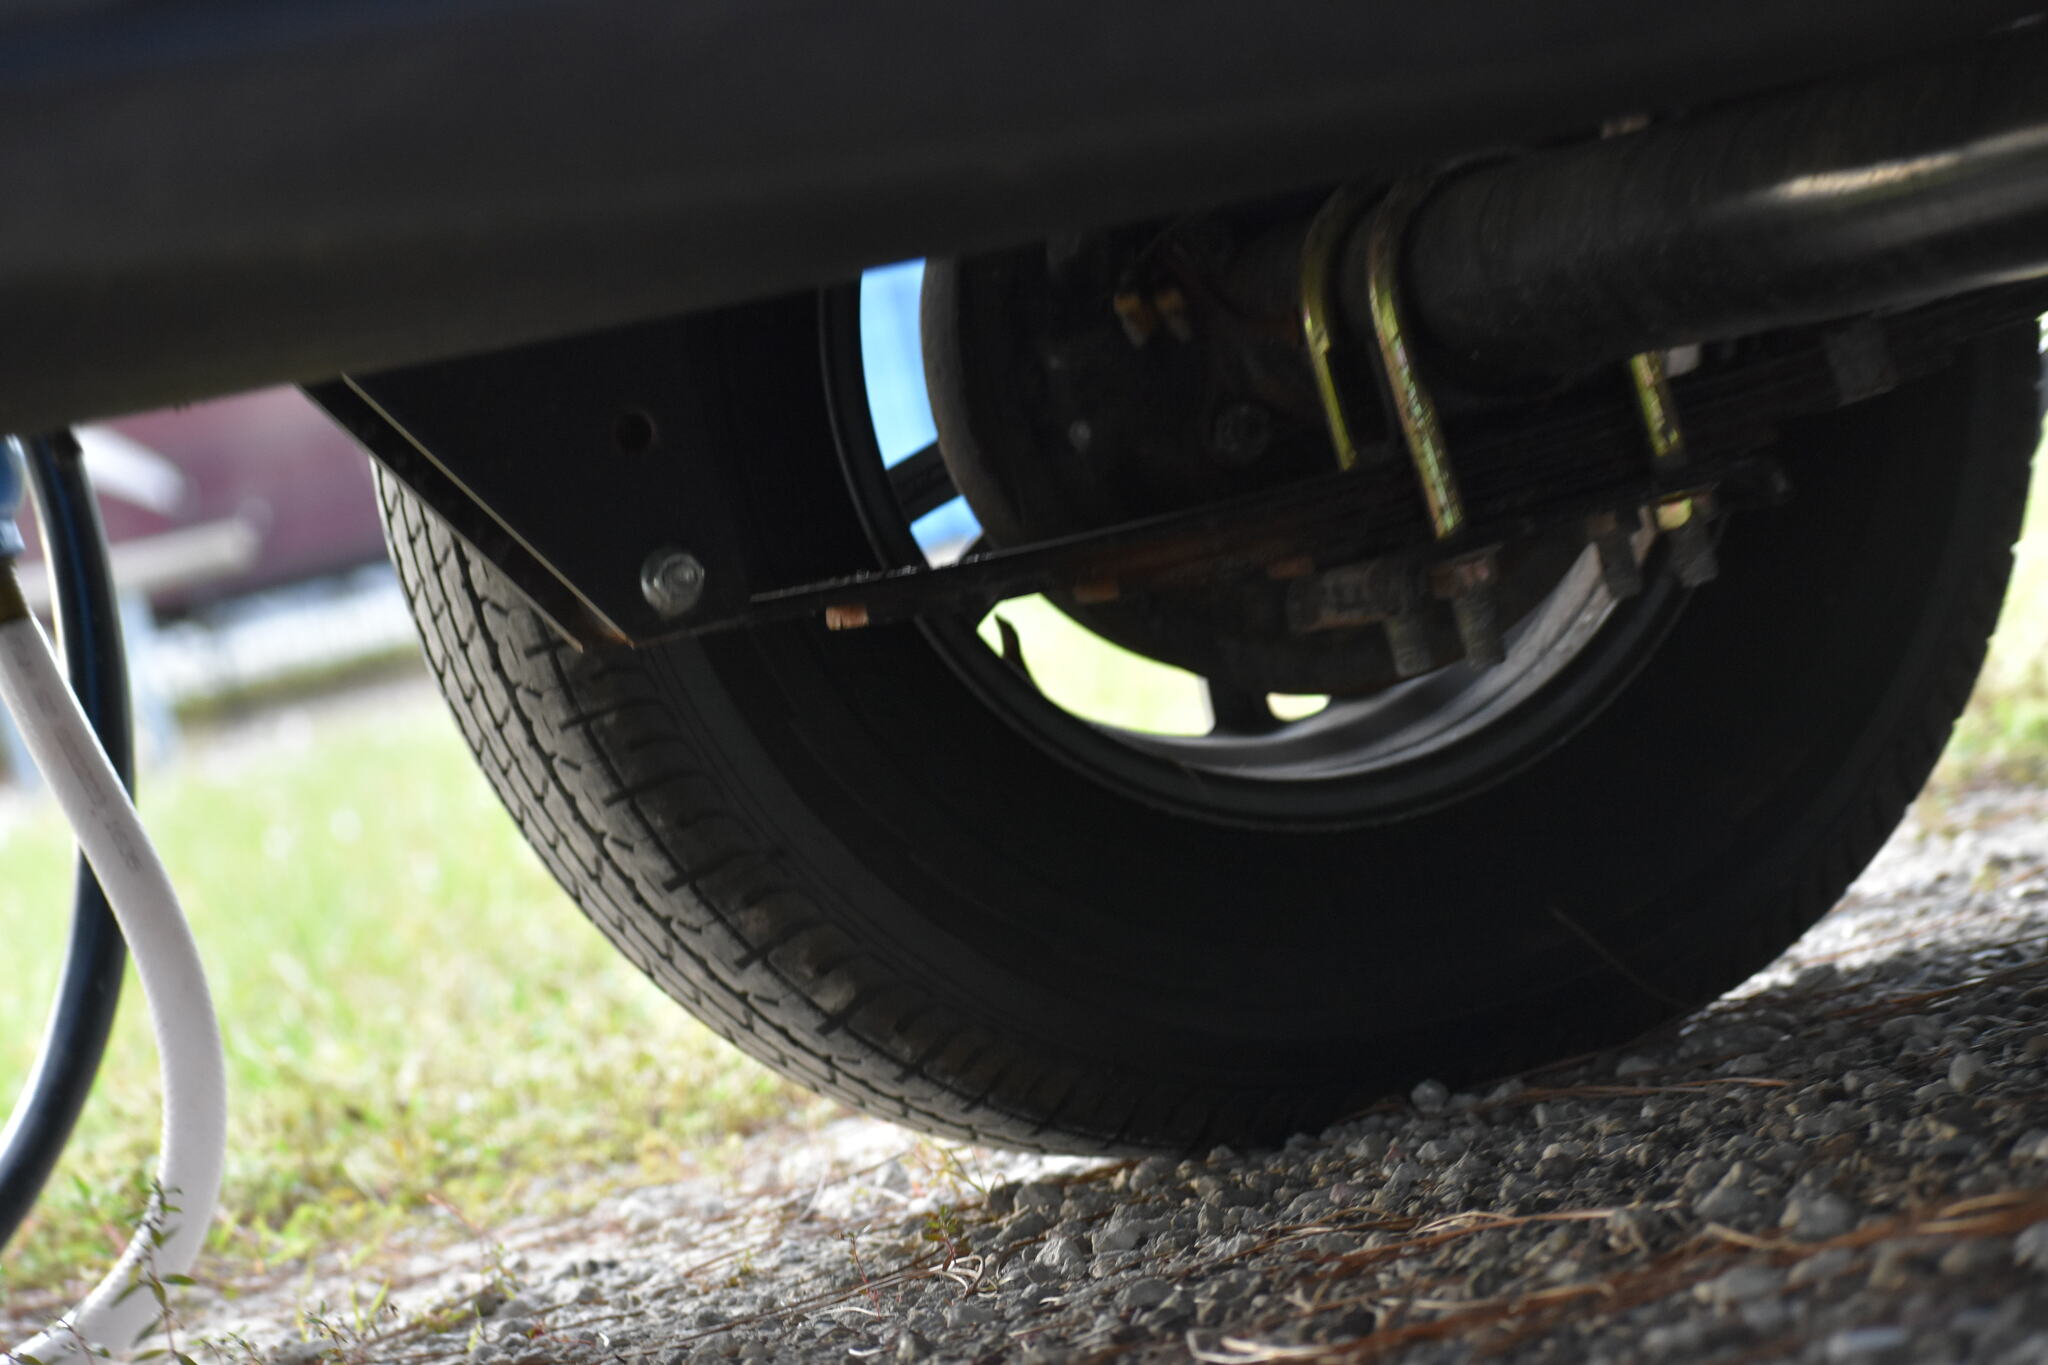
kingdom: Animalia
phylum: Chordata
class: Squamata
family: Dactyloidae
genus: Anolis
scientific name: Anolis sagrei
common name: Brown anole
